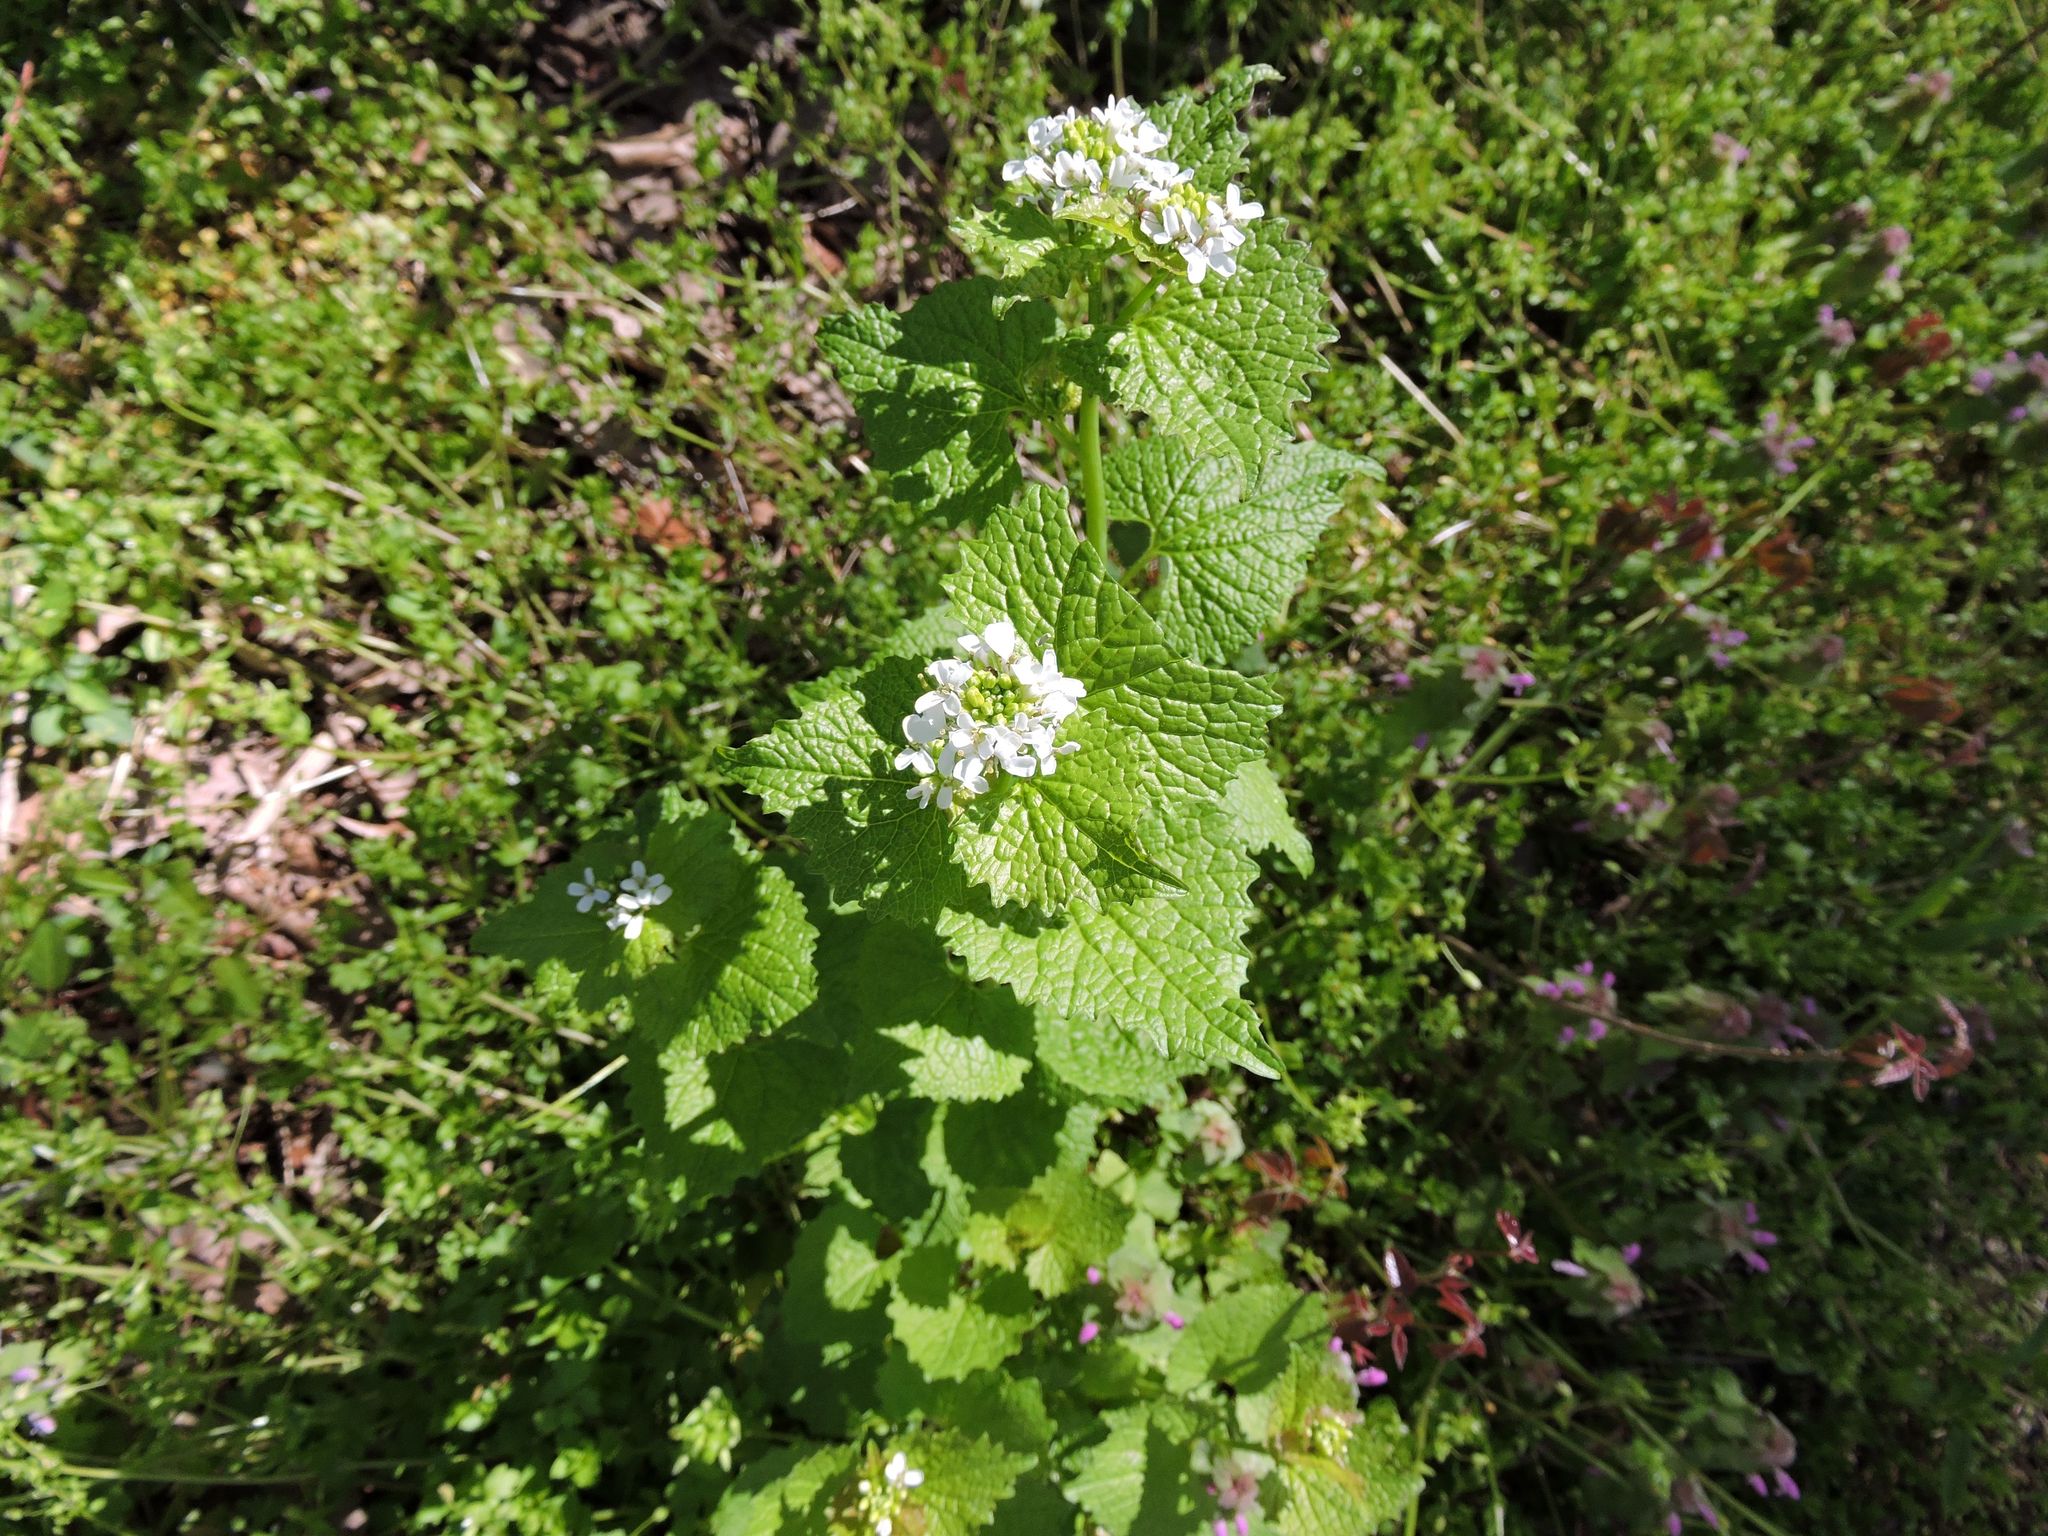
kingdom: Plantae
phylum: Tracheophyta
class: Magnoliopsida
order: Brassicales
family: Brassicaceae
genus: Alliaria
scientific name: Alliaria petiolata
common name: Garlic mustard
